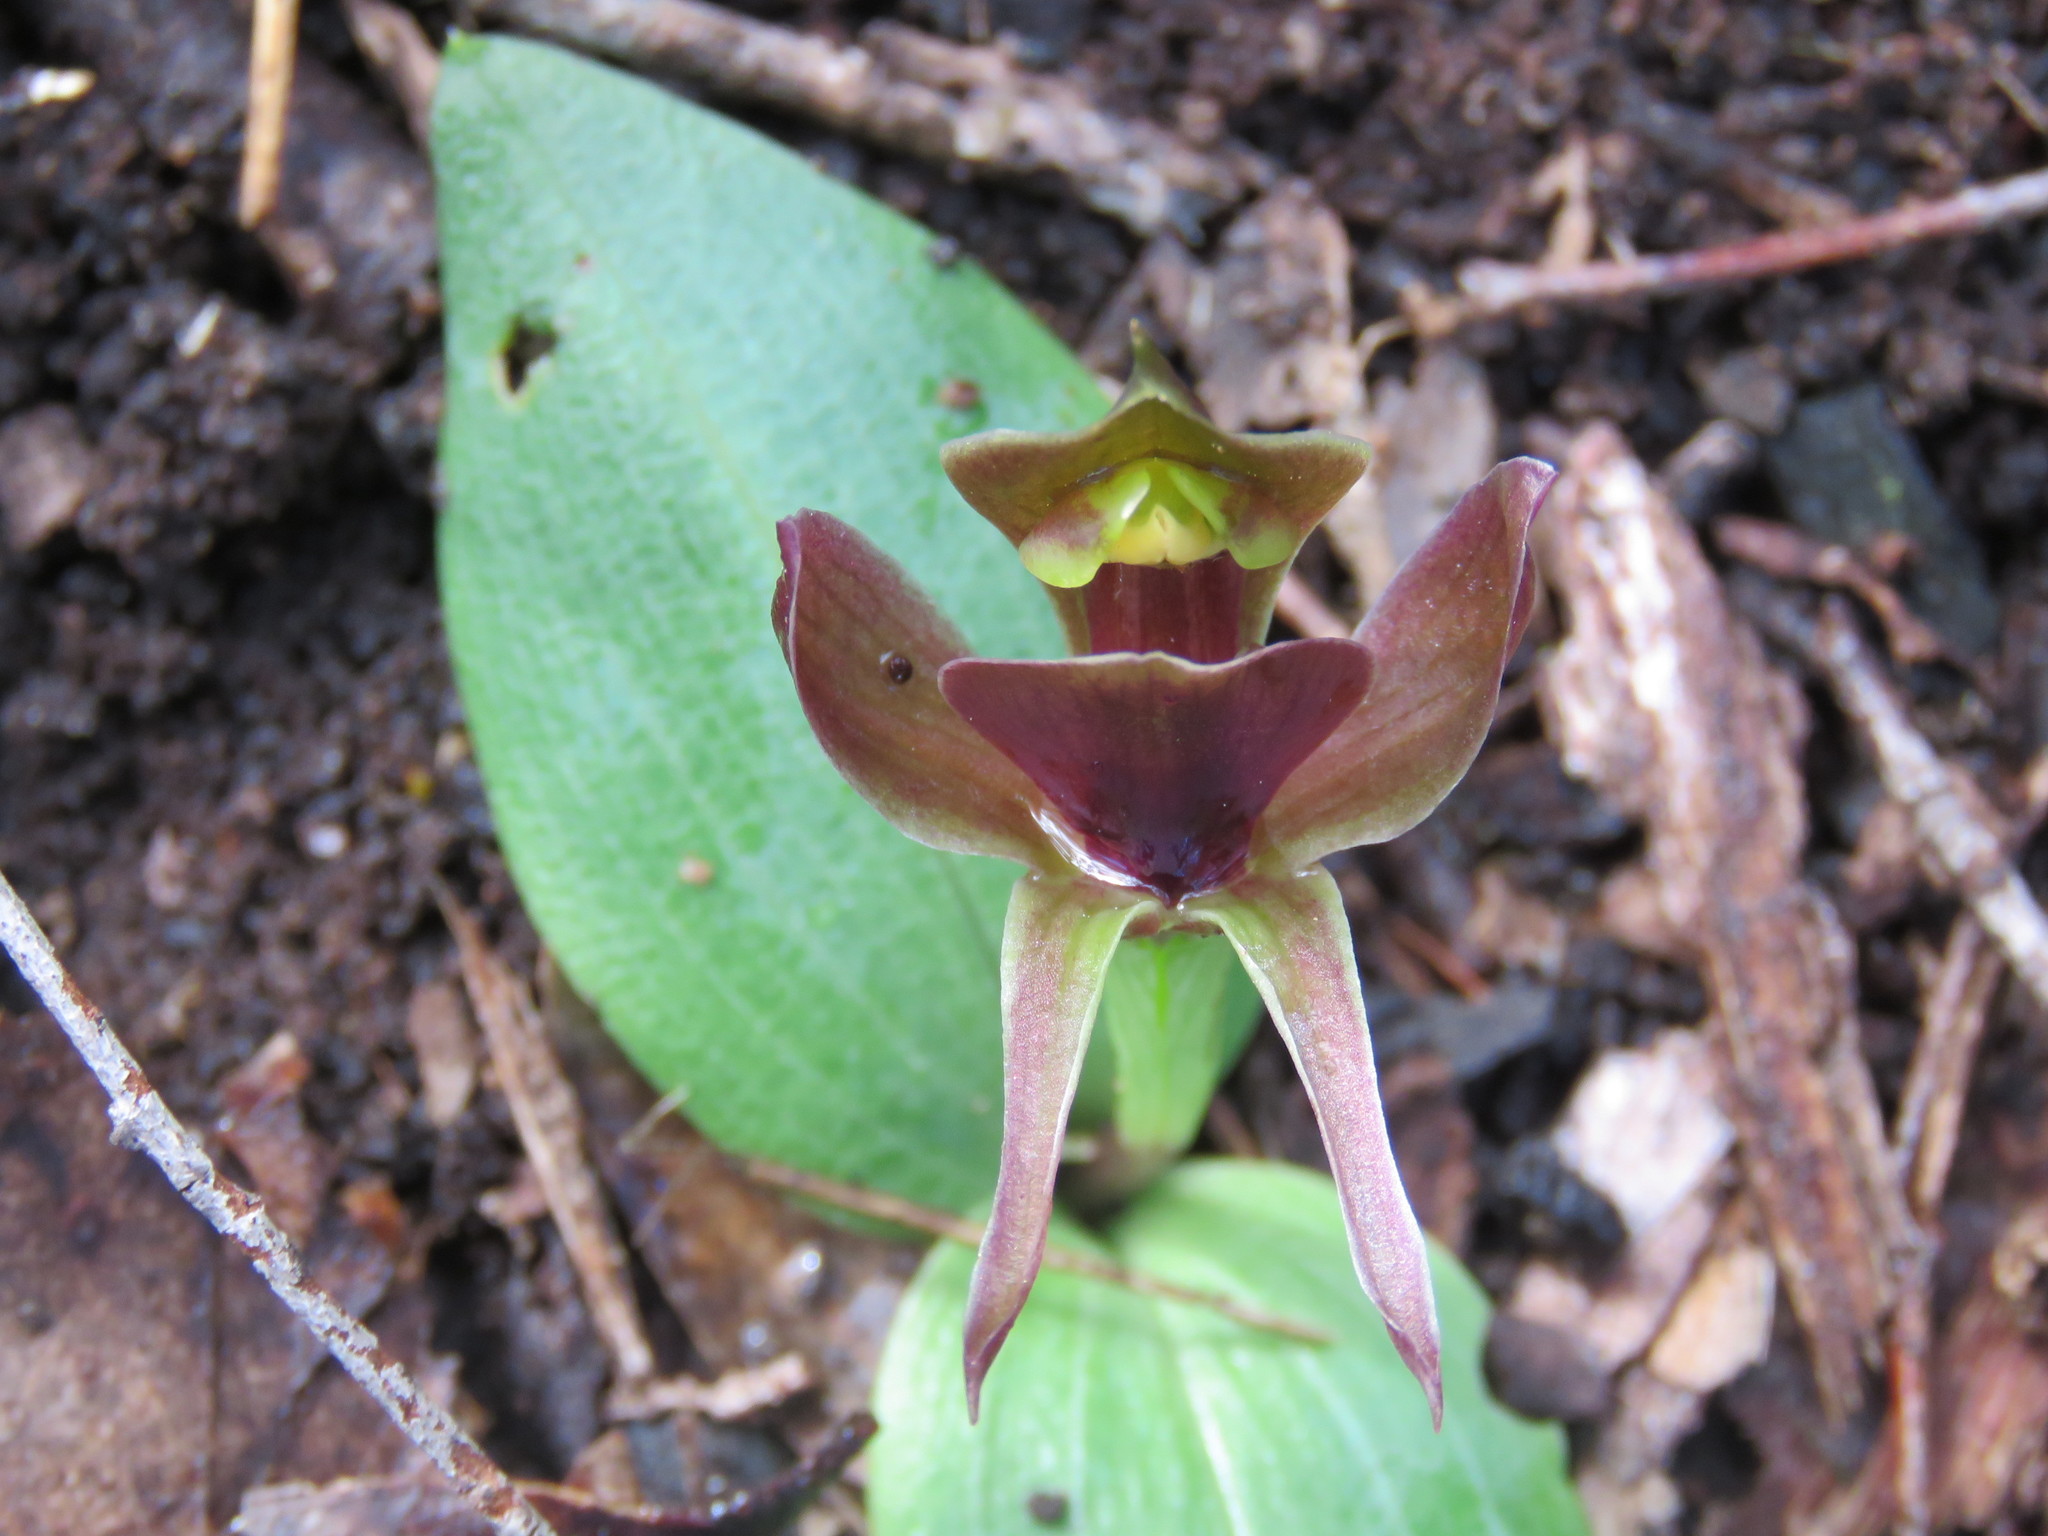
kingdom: Plantae
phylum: Tracheophyta
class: Liliopsida
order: Asparagales
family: Orchidaceae
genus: Chiloglottis
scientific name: Chiloglottis valida
